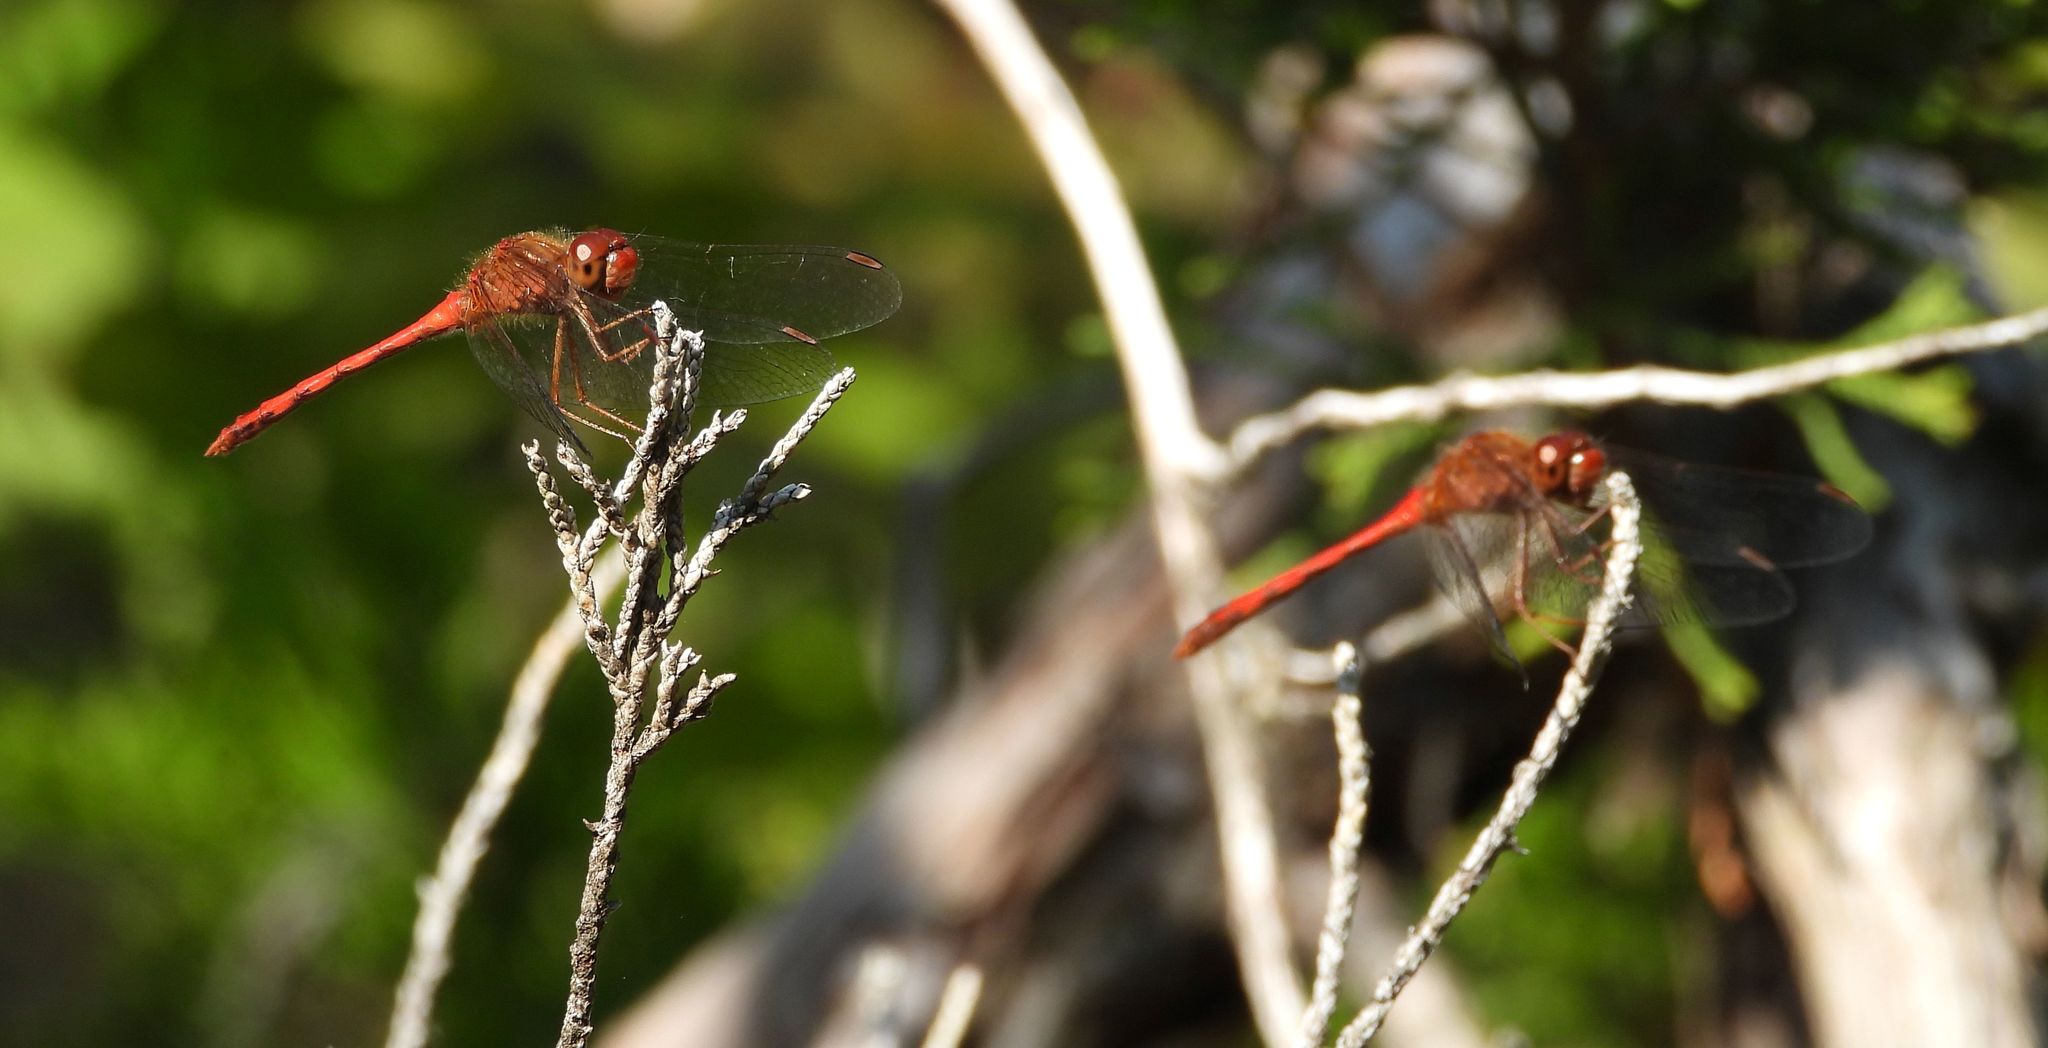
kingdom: Animalia
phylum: Arthropoda
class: Insecta
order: Odonata
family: Libellulidae
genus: Sympetrum
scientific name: Sympetrum vicinum
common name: Autumn meadowhawk
